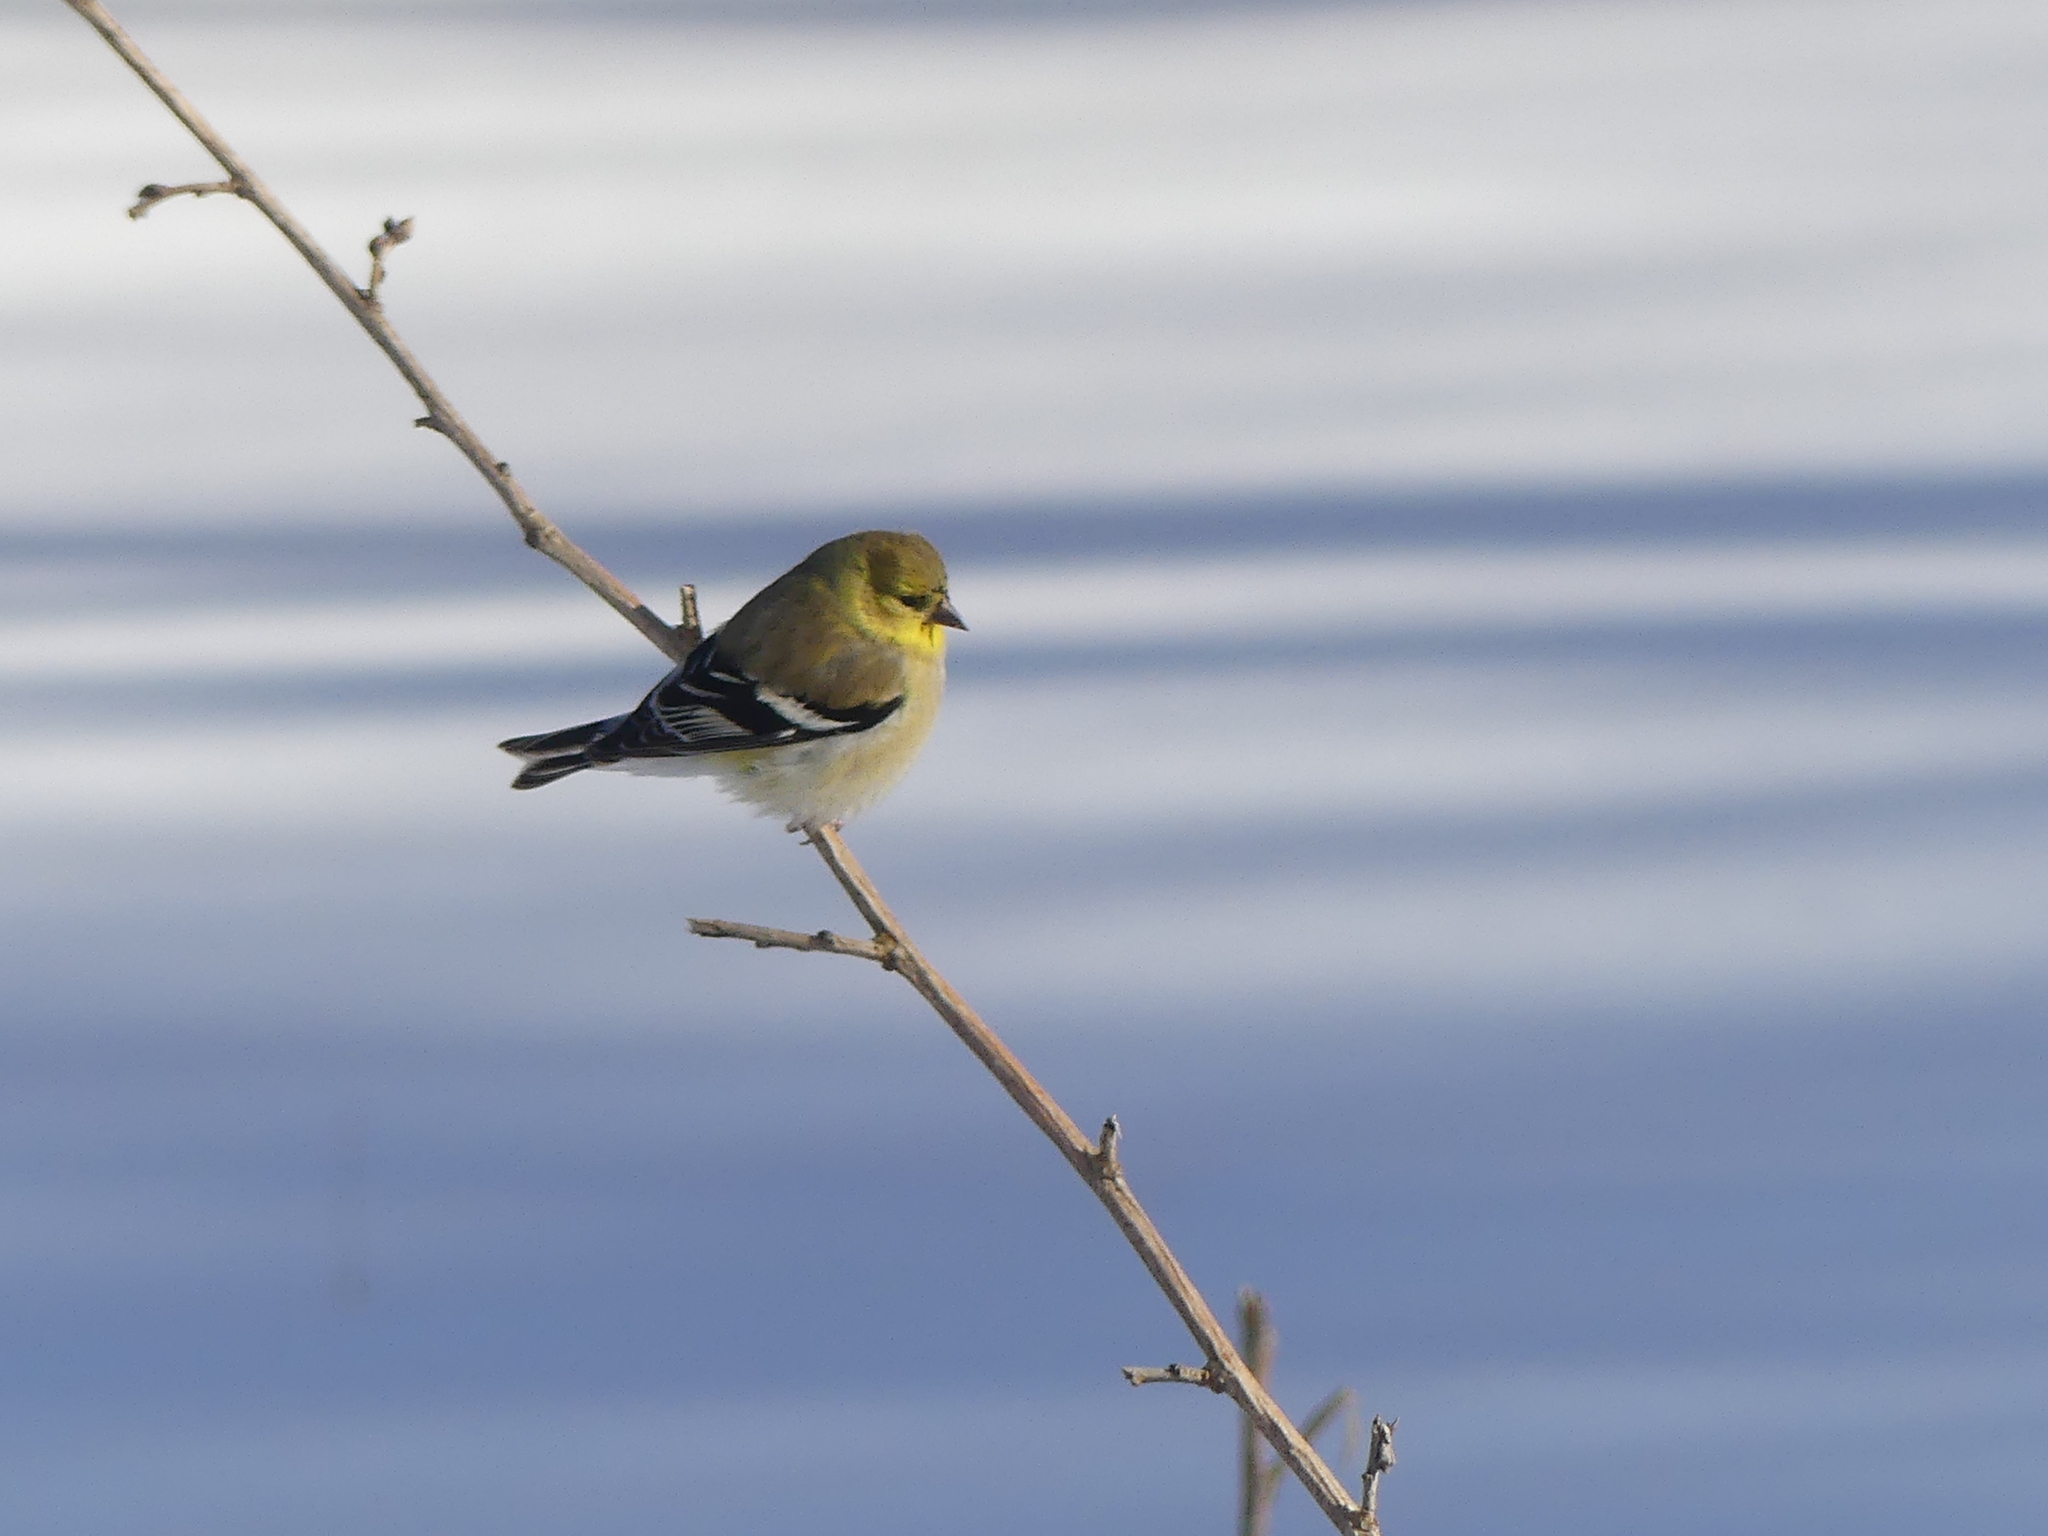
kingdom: Animalia
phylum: Chordata
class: Aves
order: Passeriformes
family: Fringillidae
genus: Spinus
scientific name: Spinus tristis
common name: American goldfinch
